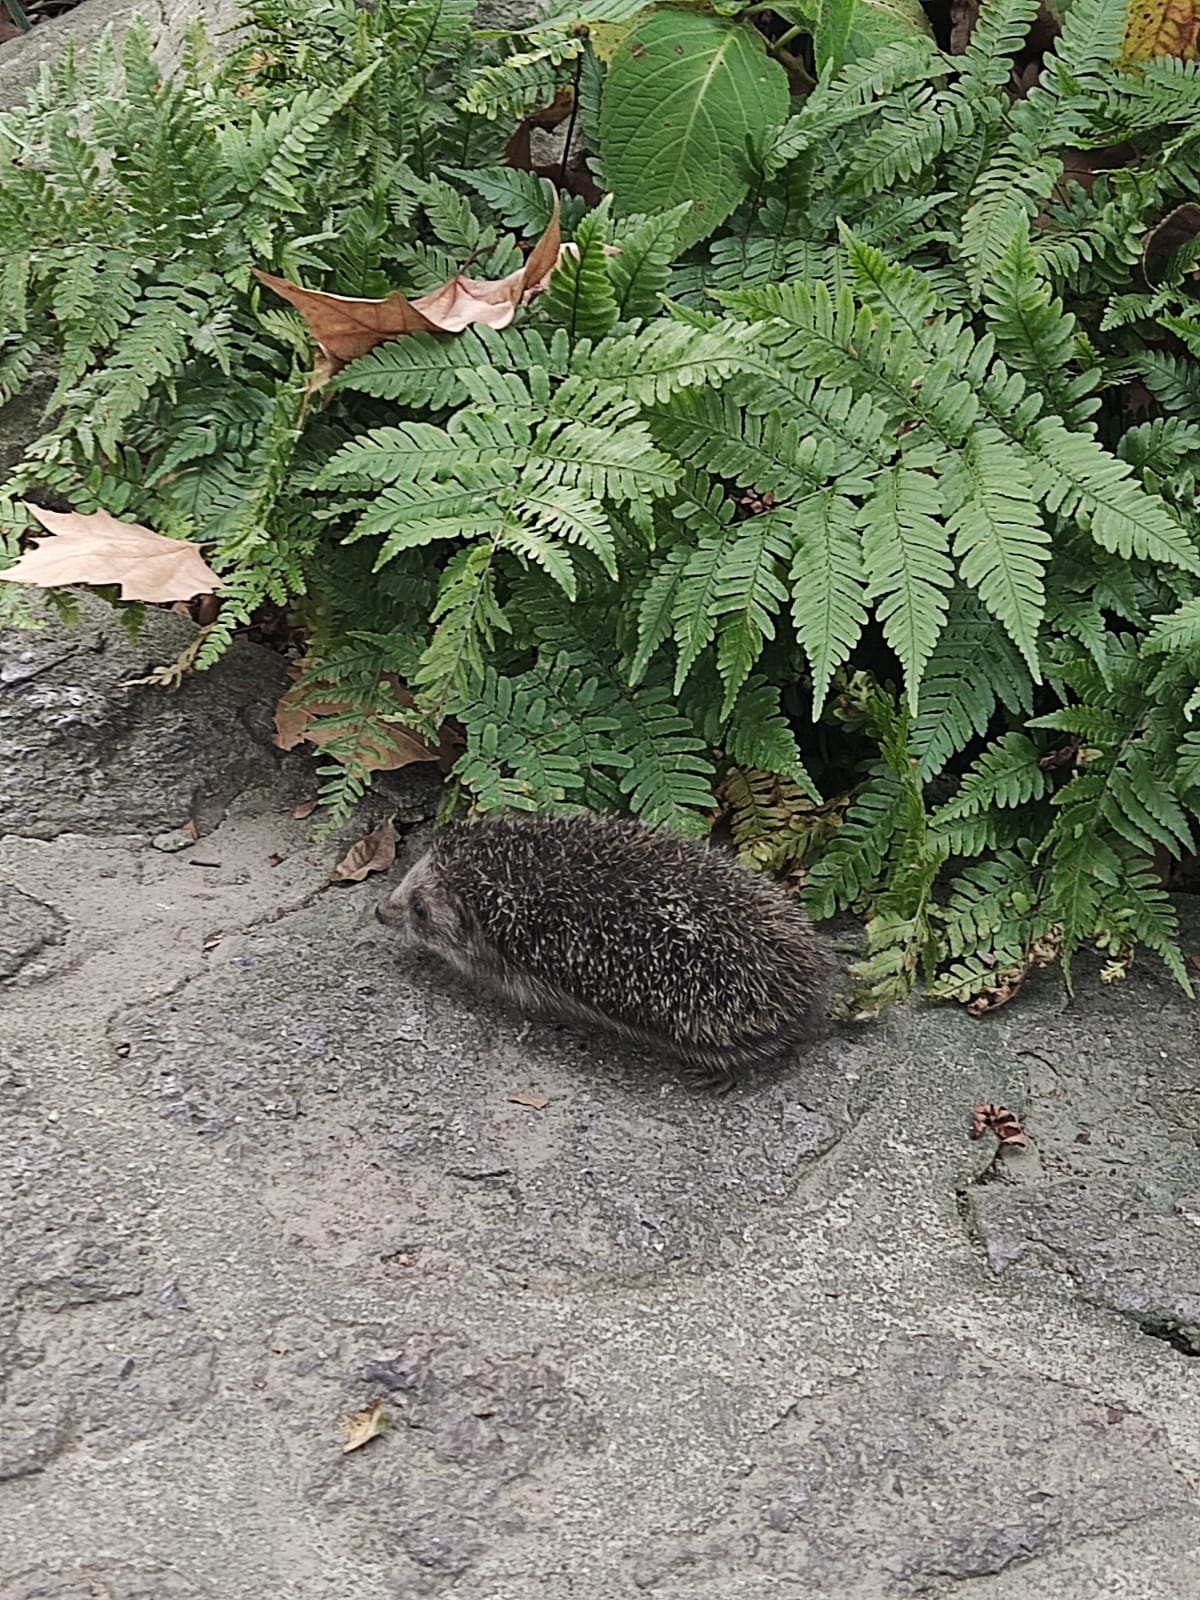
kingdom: Animalia
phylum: Chordata
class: Mammalia
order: Erinaceomorpha
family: Erinaceidae
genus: Erinaceus
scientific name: Erinaceus amurensis
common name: Amur hedgehog
